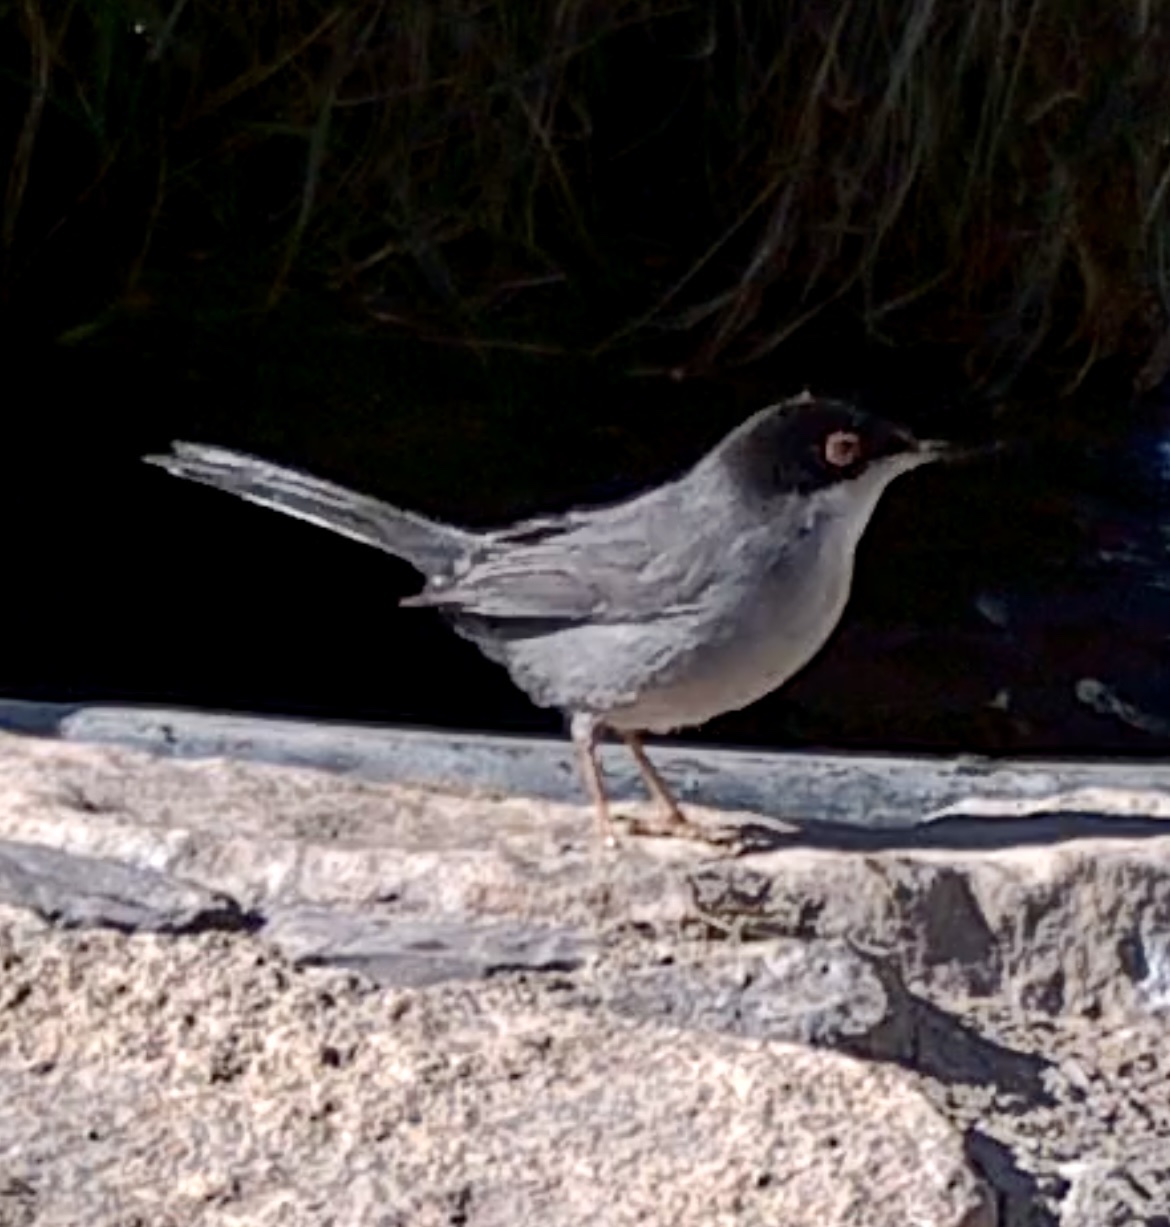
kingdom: Animalia
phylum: Chordata
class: Aves
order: Passeriformes
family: Sylviidae
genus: Curruca
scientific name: Curruca melanocephala
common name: Sardinian warbler
